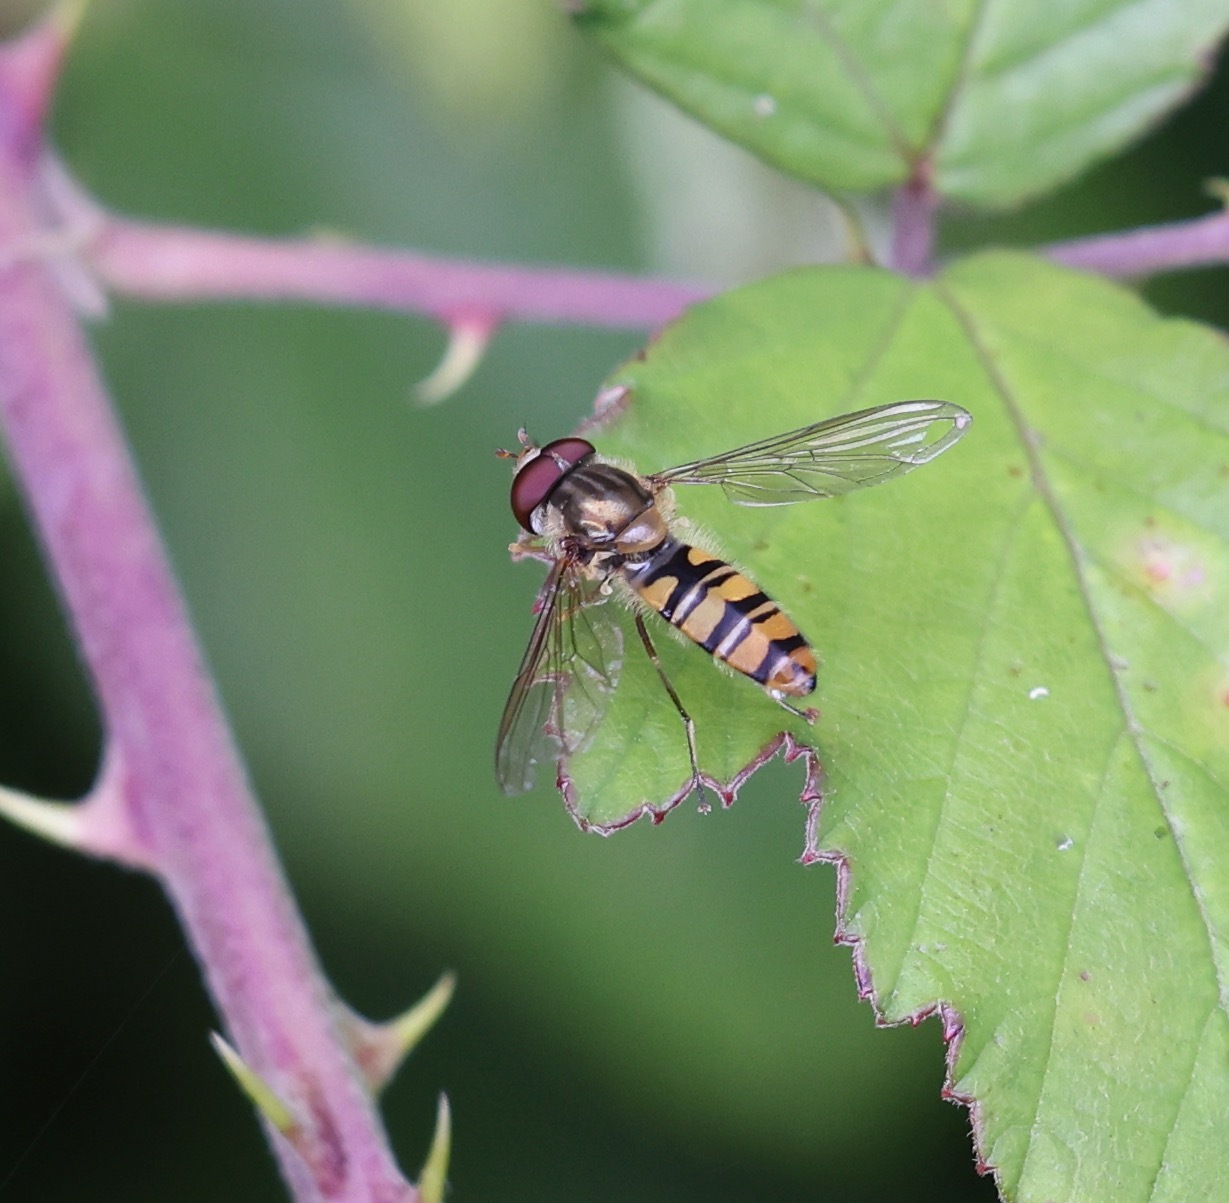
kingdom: Animalia
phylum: Arthropoda
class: Insecta
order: Diptera
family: Syrphidae
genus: Episyrphus
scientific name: Episyrphus balteatus
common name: Marmalade hoverfly
